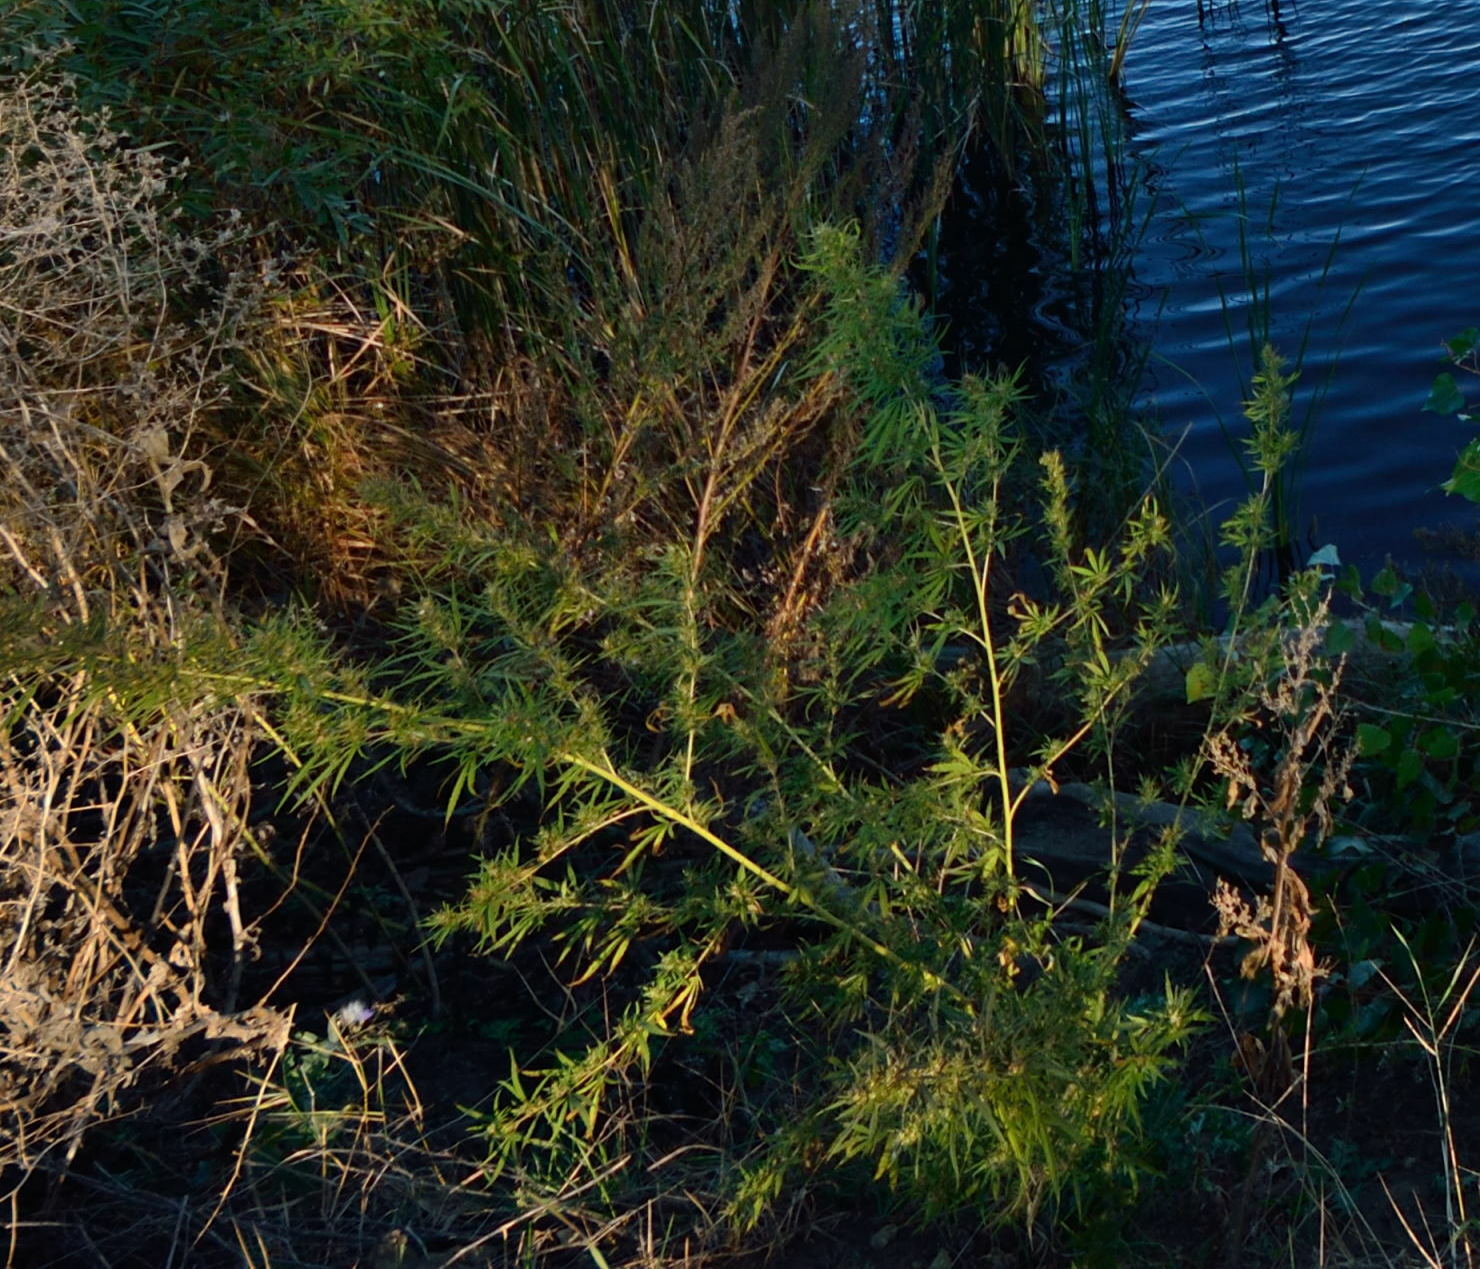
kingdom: Plantae
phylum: Tracheophyta
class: Magnoliopsida
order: Rosales
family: Cannabaceae
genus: Cannabis
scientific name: Cannabis sativa
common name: Hemp
